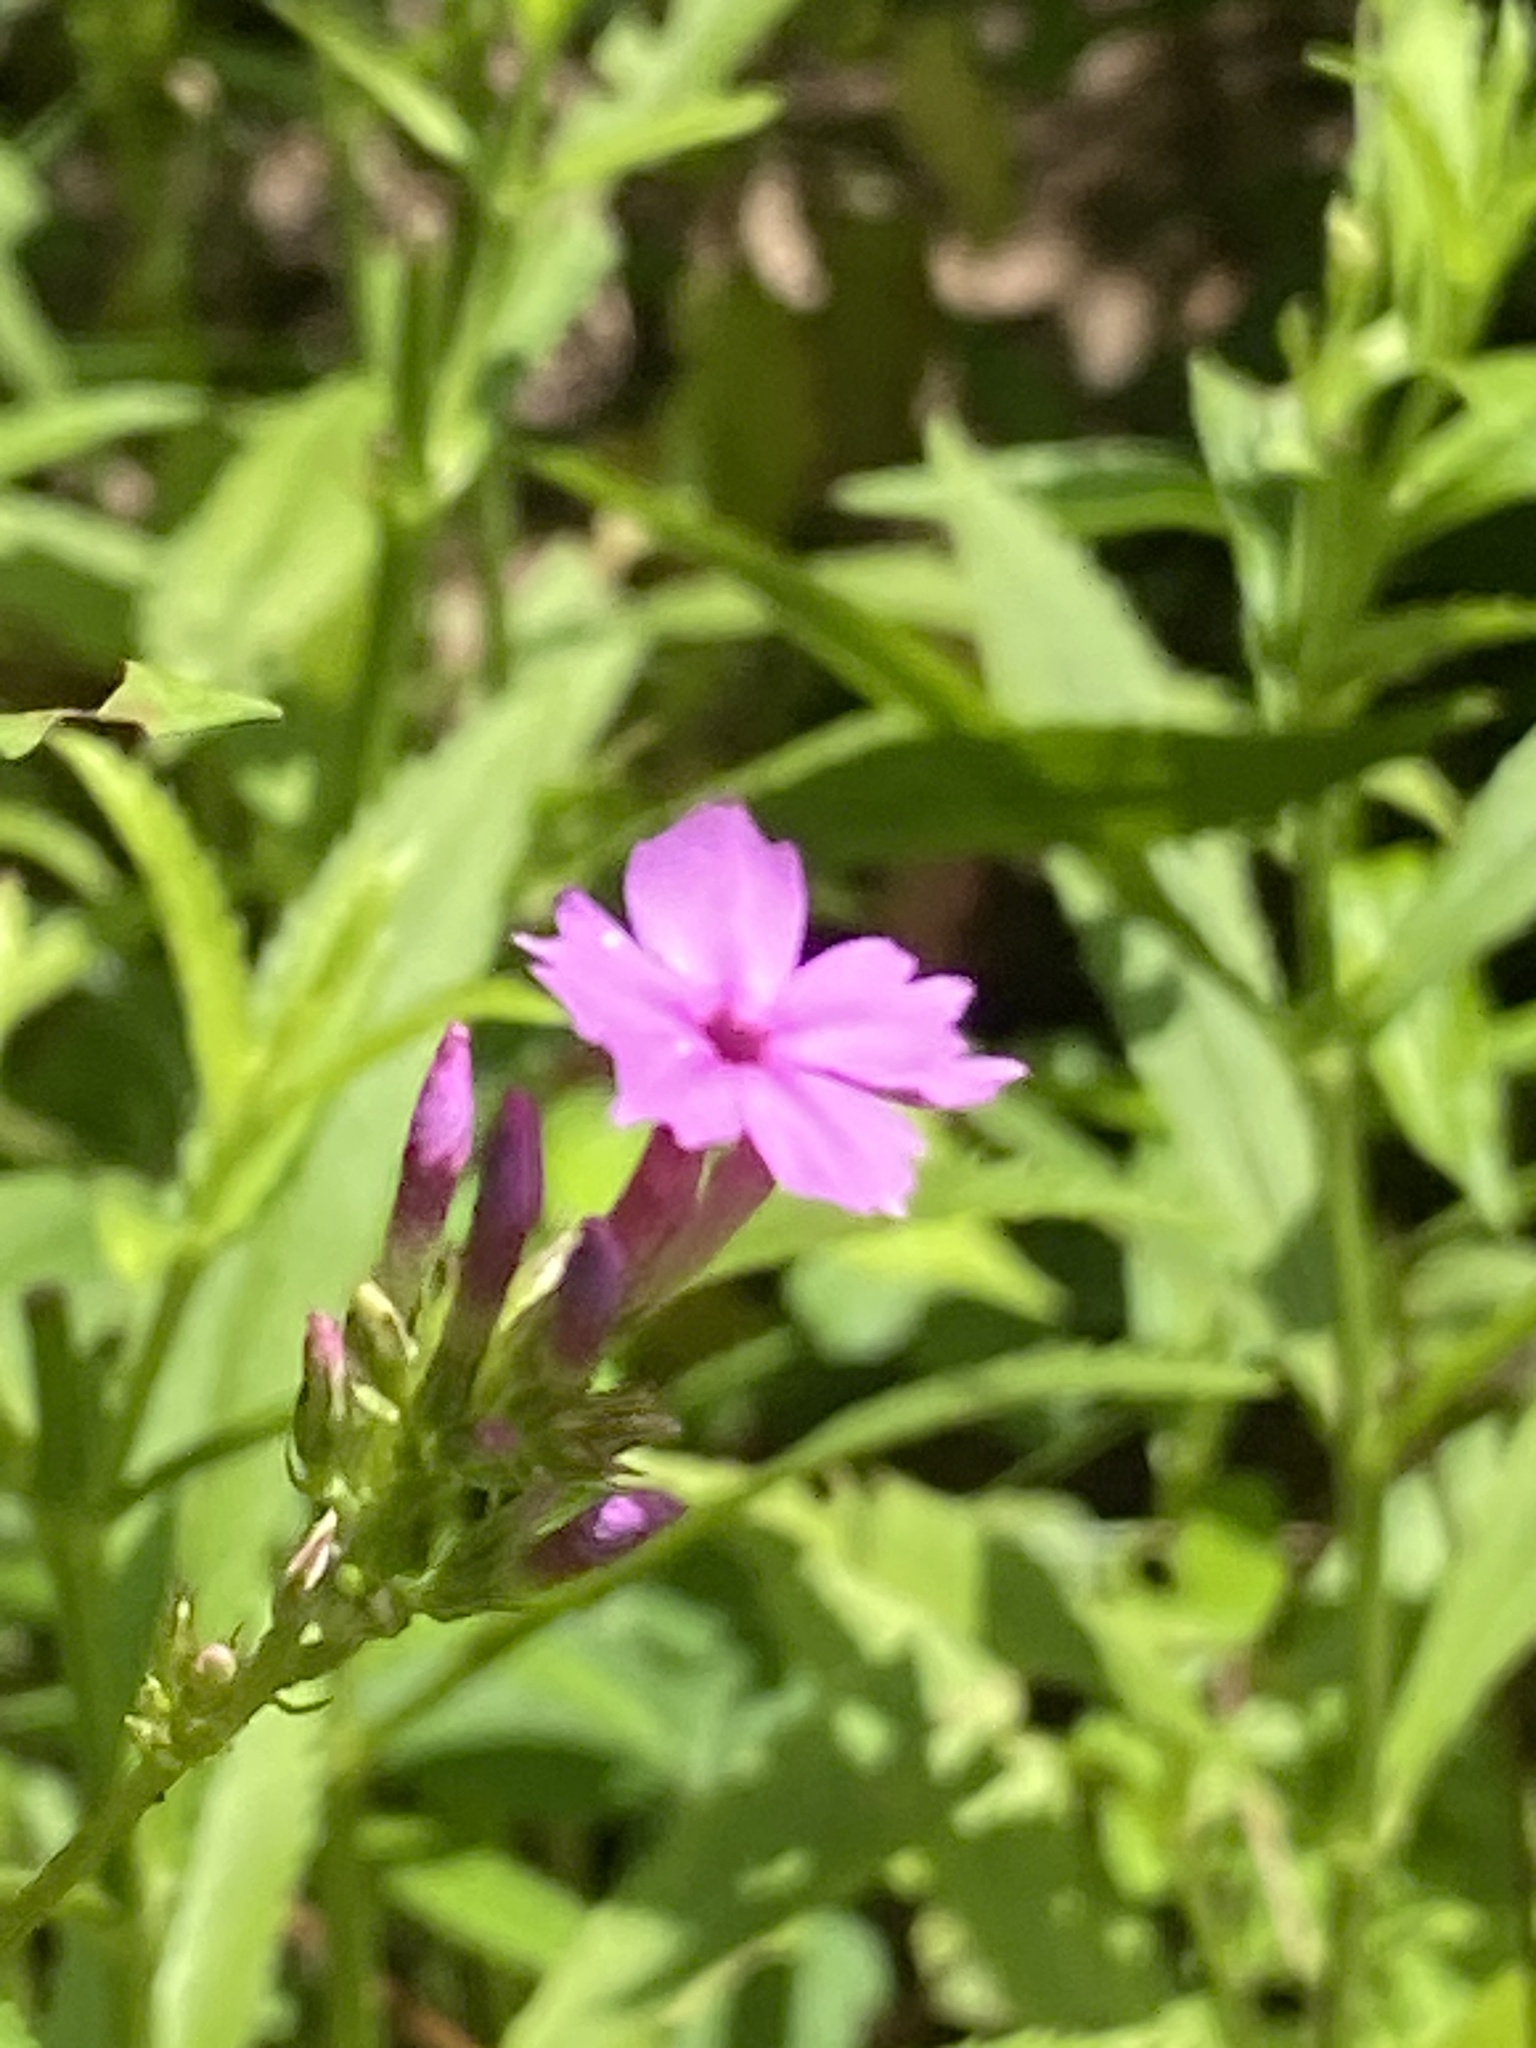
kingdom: Plantae
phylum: Tracheophyta
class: Magnoliopsida
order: Ericales
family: Polemoniaceae
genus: Phlox
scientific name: Phlox paniculata
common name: Fall phlox
